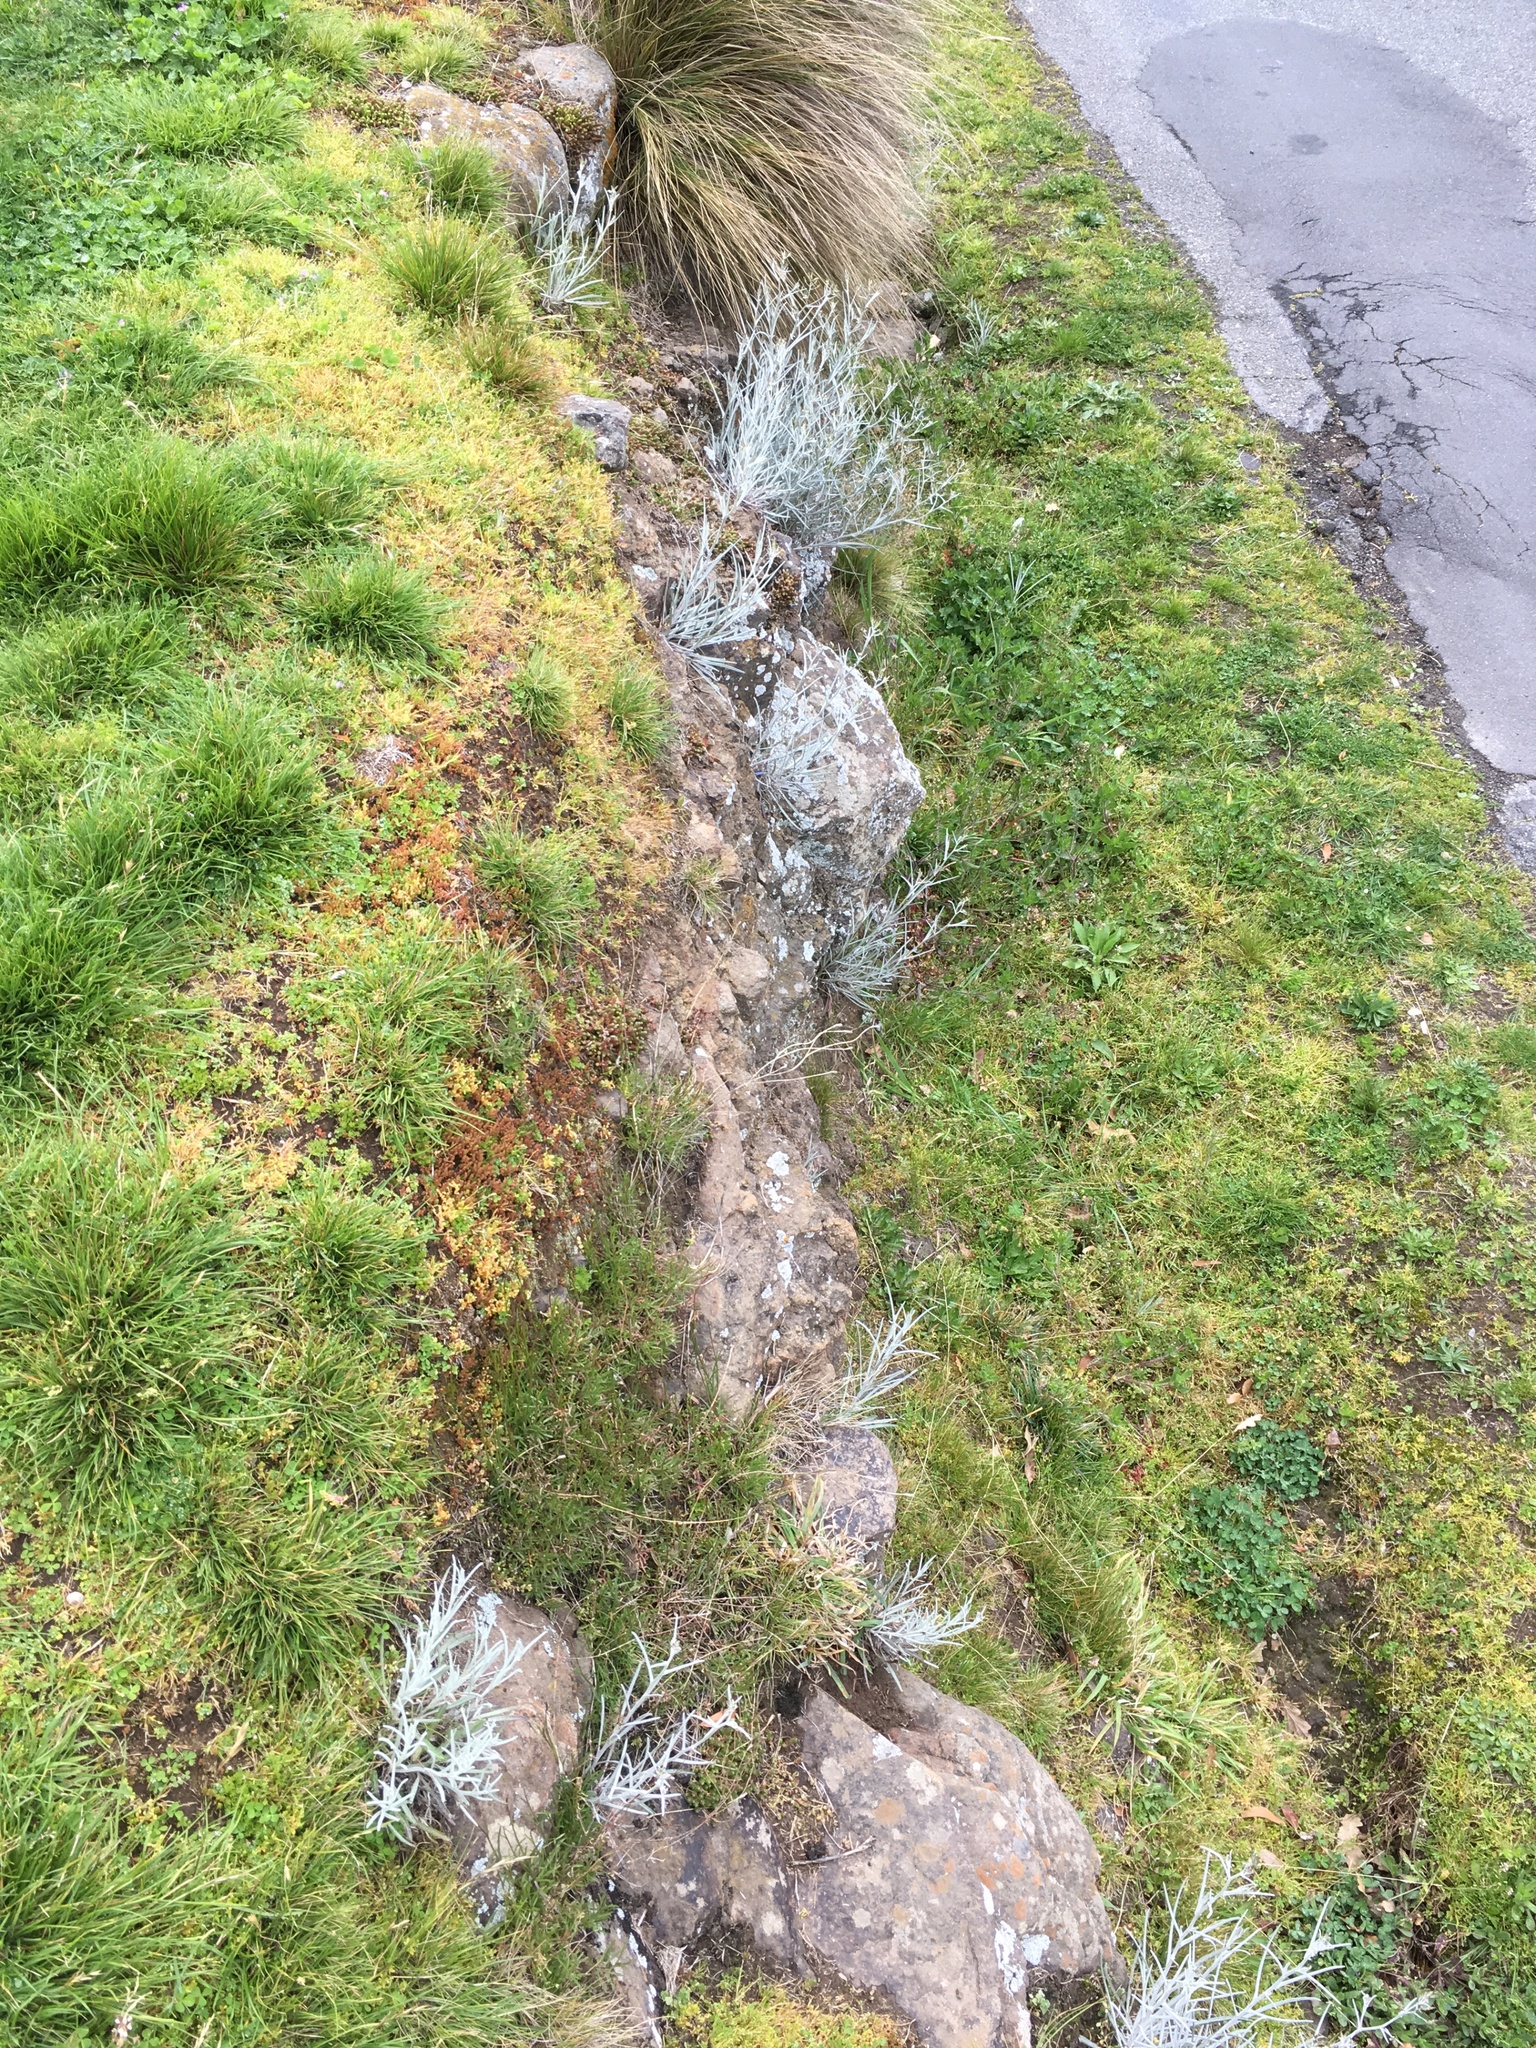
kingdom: Plantae
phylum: Tracheophyta
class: Magnoliopsida
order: Asterales
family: Asteraceae
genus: Senecio
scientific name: Senecio quadridentatus
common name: Cotton fireweed
